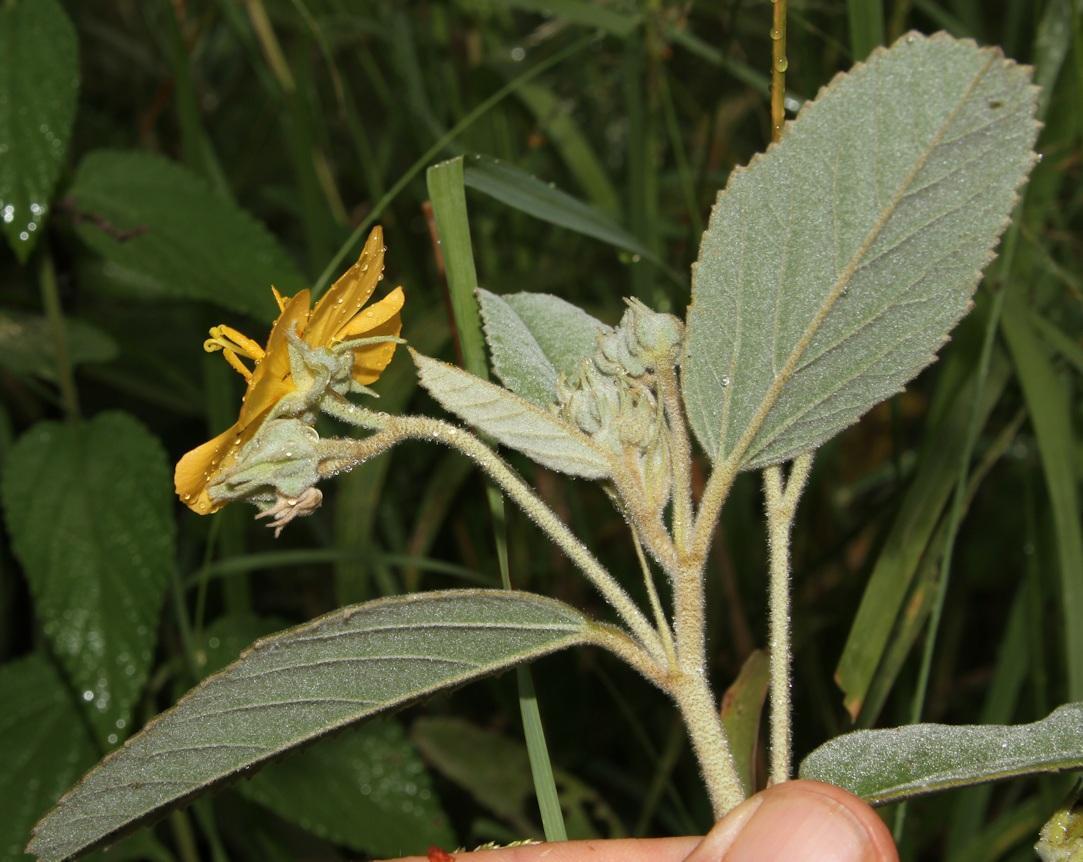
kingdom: Plantae
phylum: Tracheophyta
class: Magnoliopsida
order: Malvales
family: Malvaceae
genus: Melhania
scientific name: Melhania acuminata
